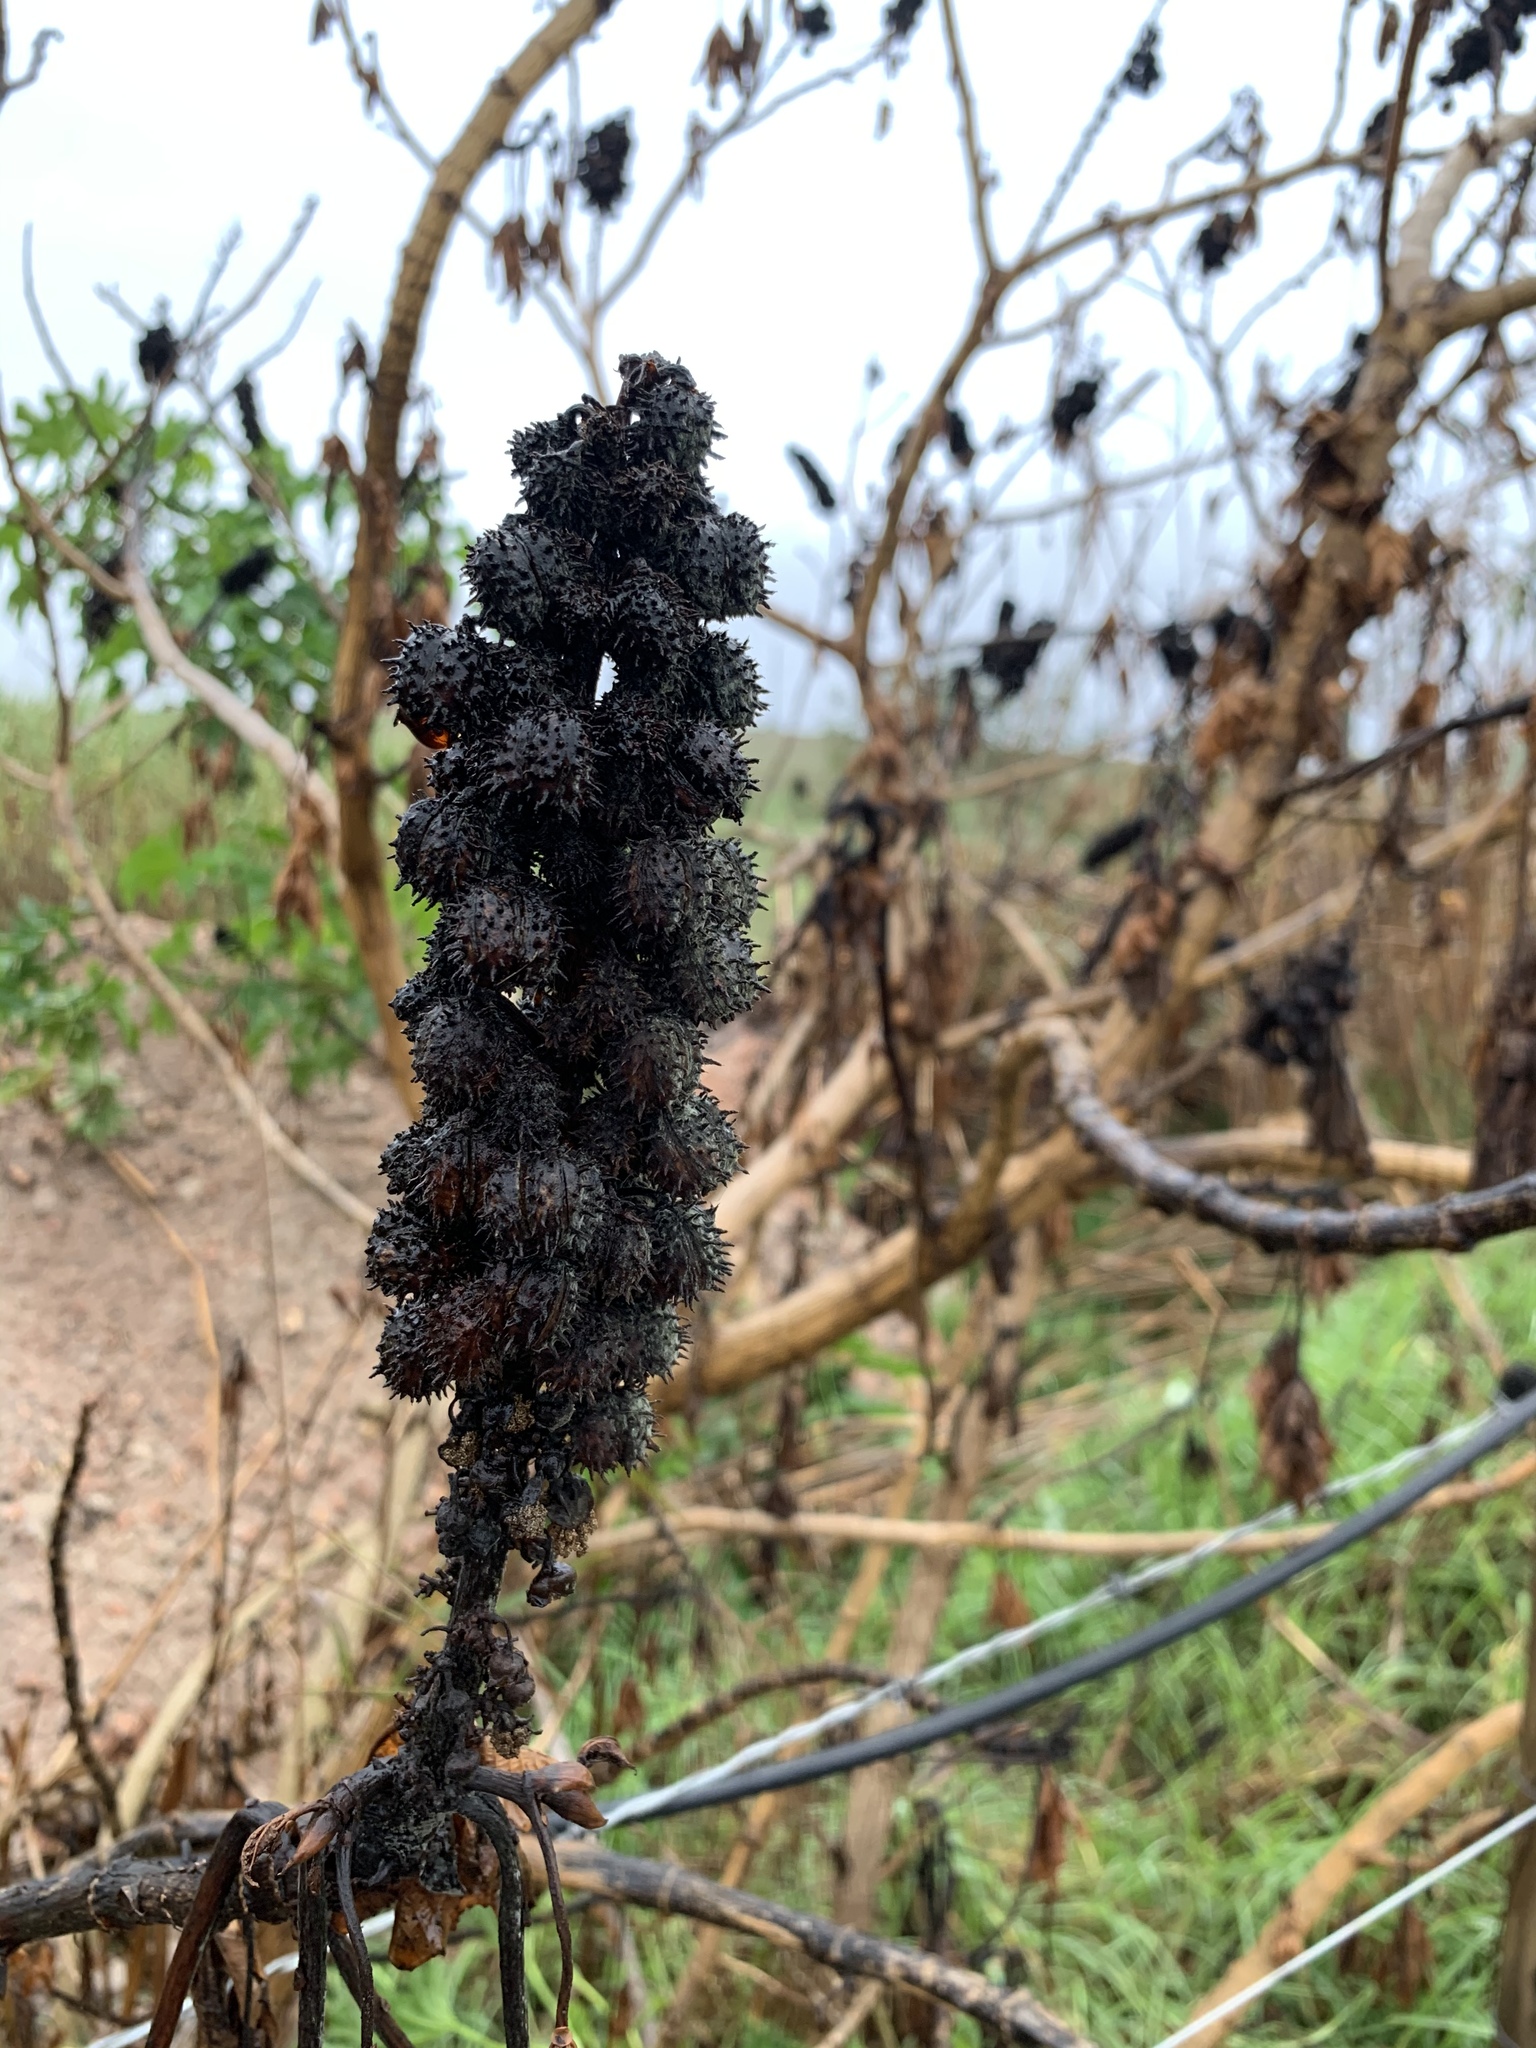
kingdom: Plantae
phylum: Tracheophyta
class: Magnoliopsida
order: Malpighiales
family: Euphorbiaceae
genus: Ricinus
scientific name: Ricinus communis
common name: Castor-oil-plant
